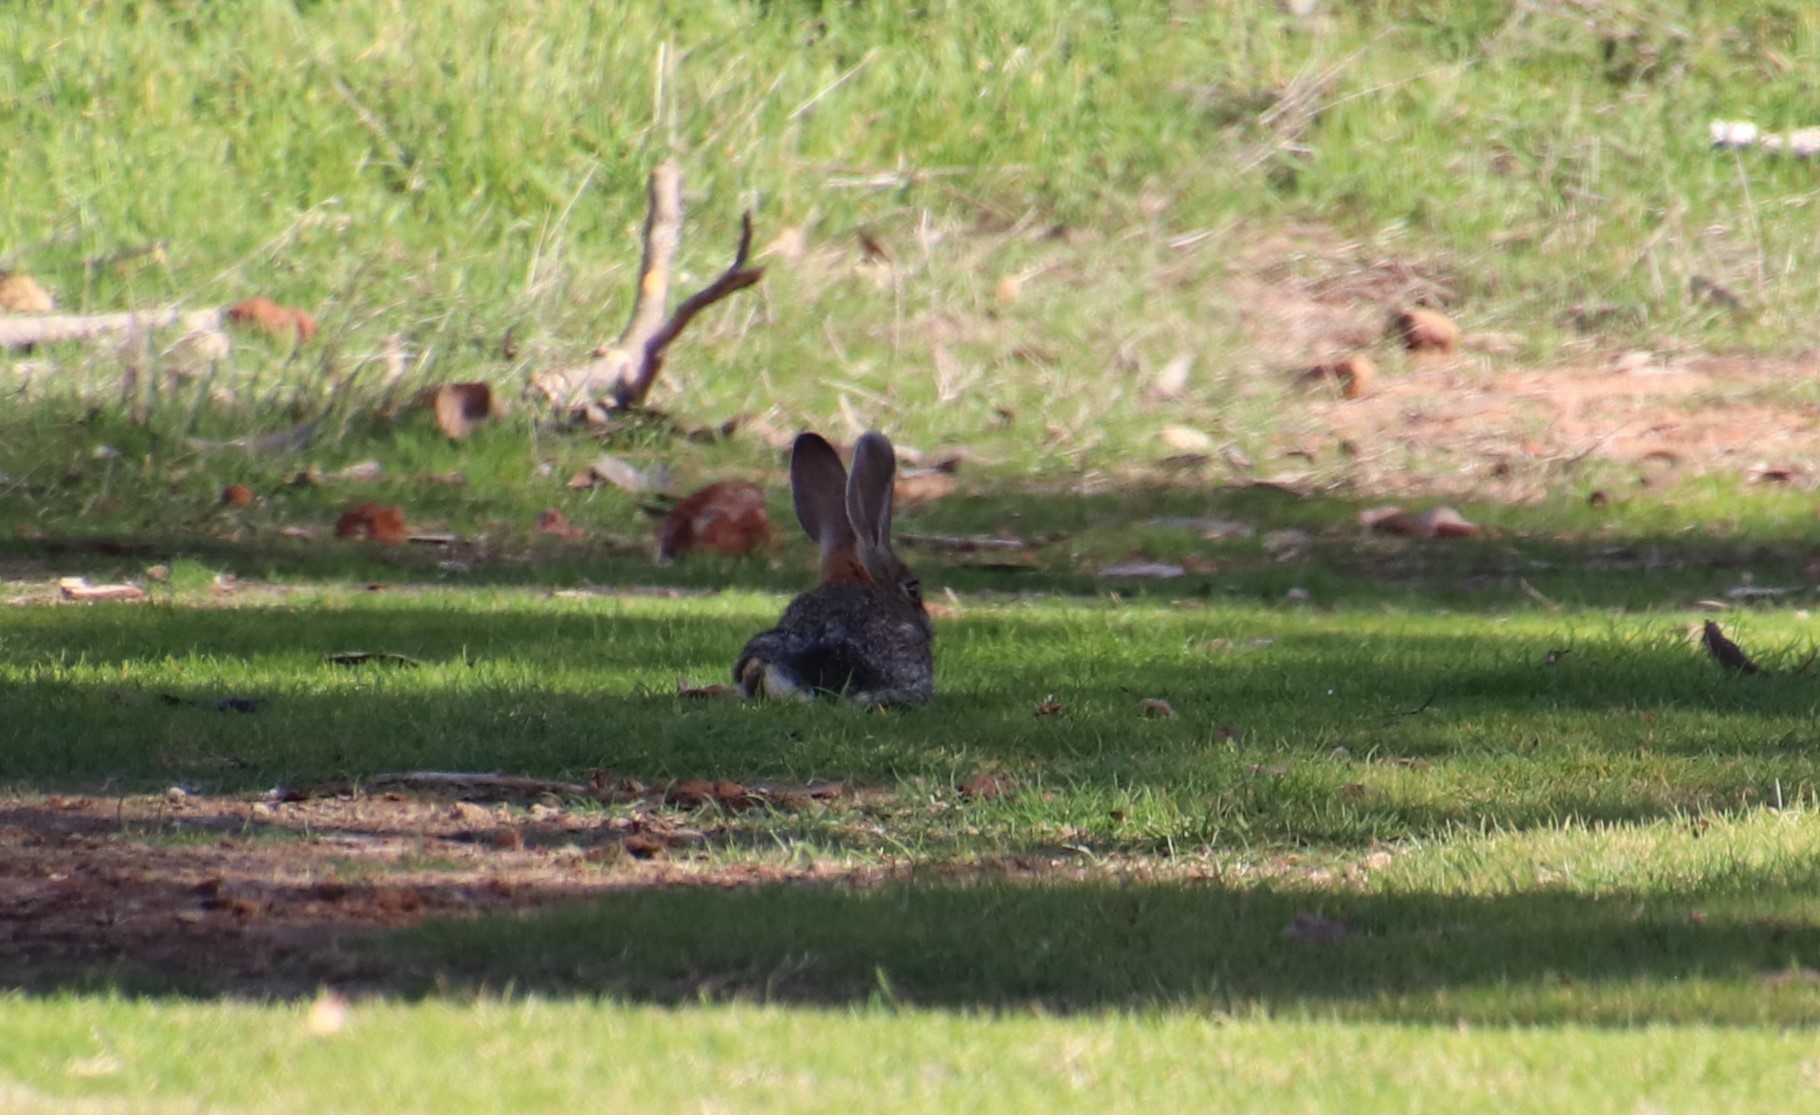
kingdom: Animalia
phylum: Chordata
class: Mammalia
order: Lagomorpha
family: Leporidae
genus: Sylvilagus
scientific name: Sylvilagus audubonii
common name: Desert cottontail
